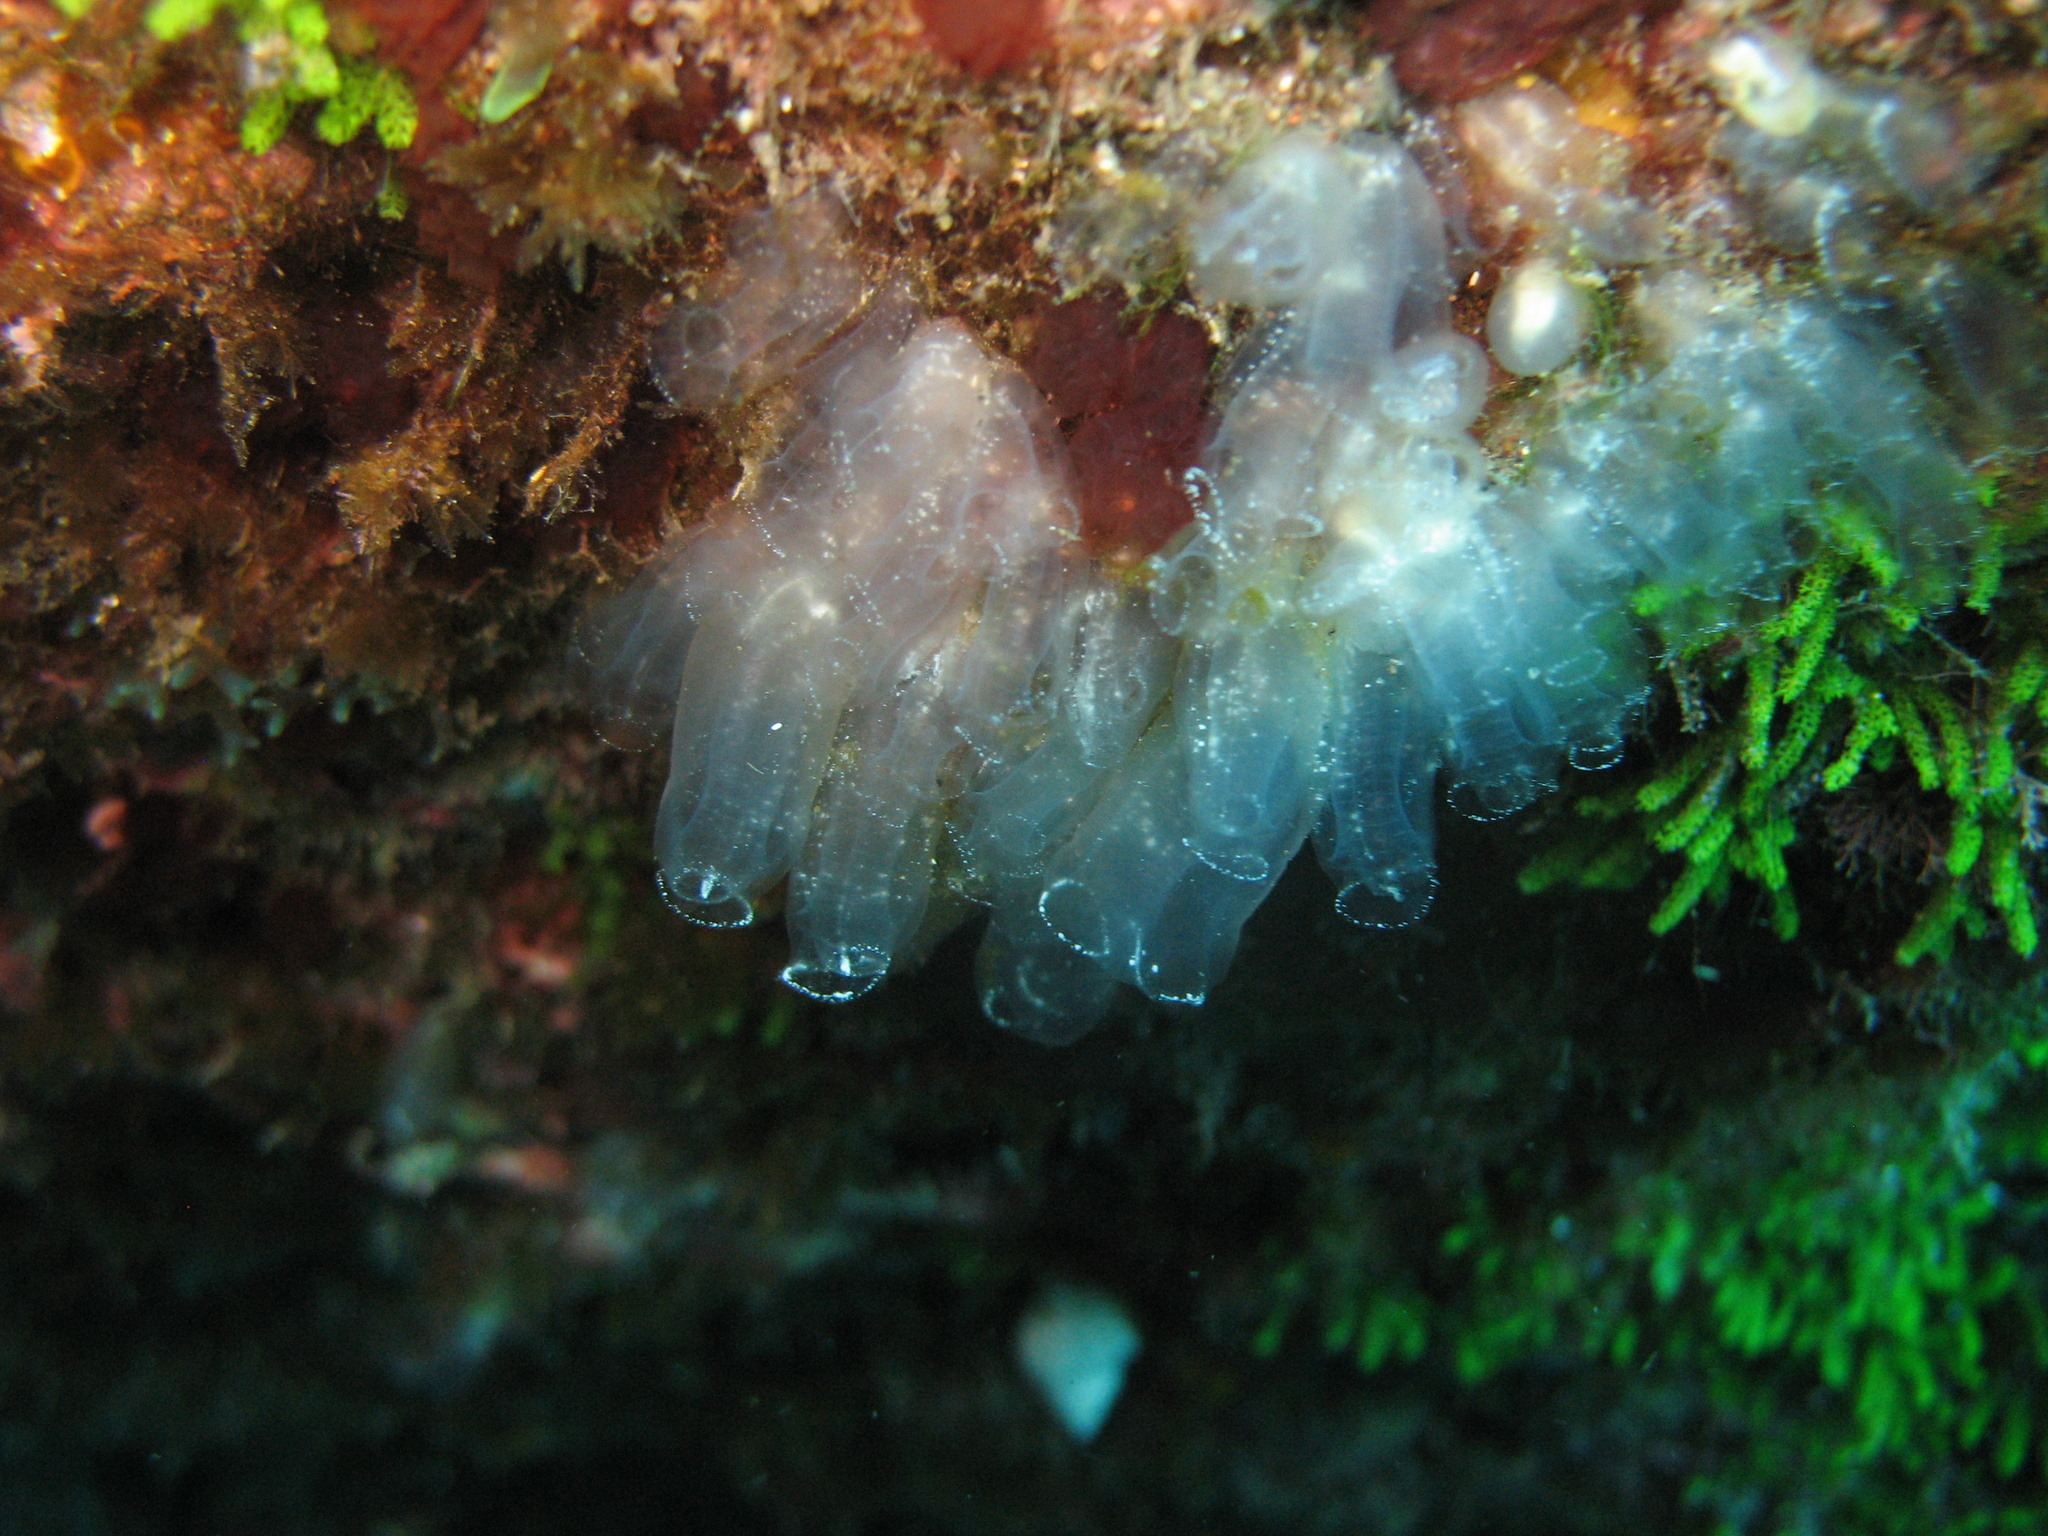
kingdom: Animalia
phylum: Chordata
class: Ascidiacea
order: Aplousobranchia
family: Clavelinidae
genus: Clavelina
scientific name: Clavelina oblonga
